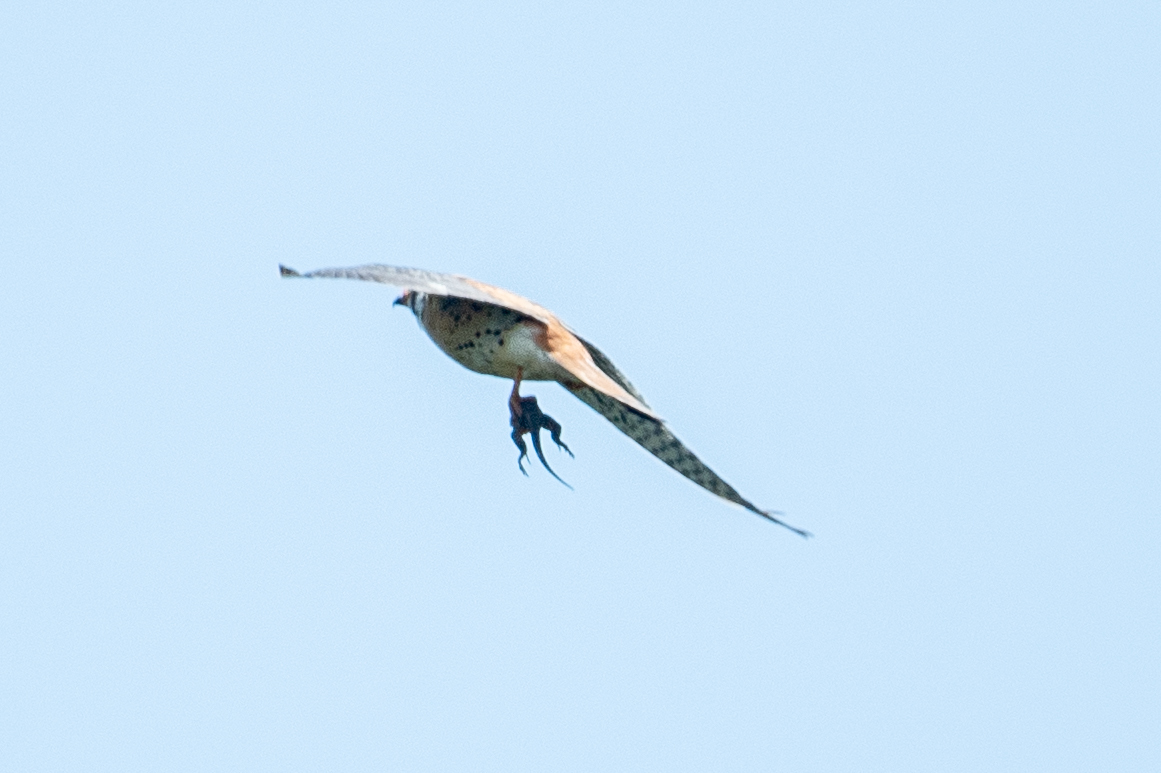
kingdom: Animalia
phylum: Chordata
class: Aves
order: Falconiformes
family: Falconidae
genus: Falco
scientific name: Falco sparverius
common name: American kestrel
